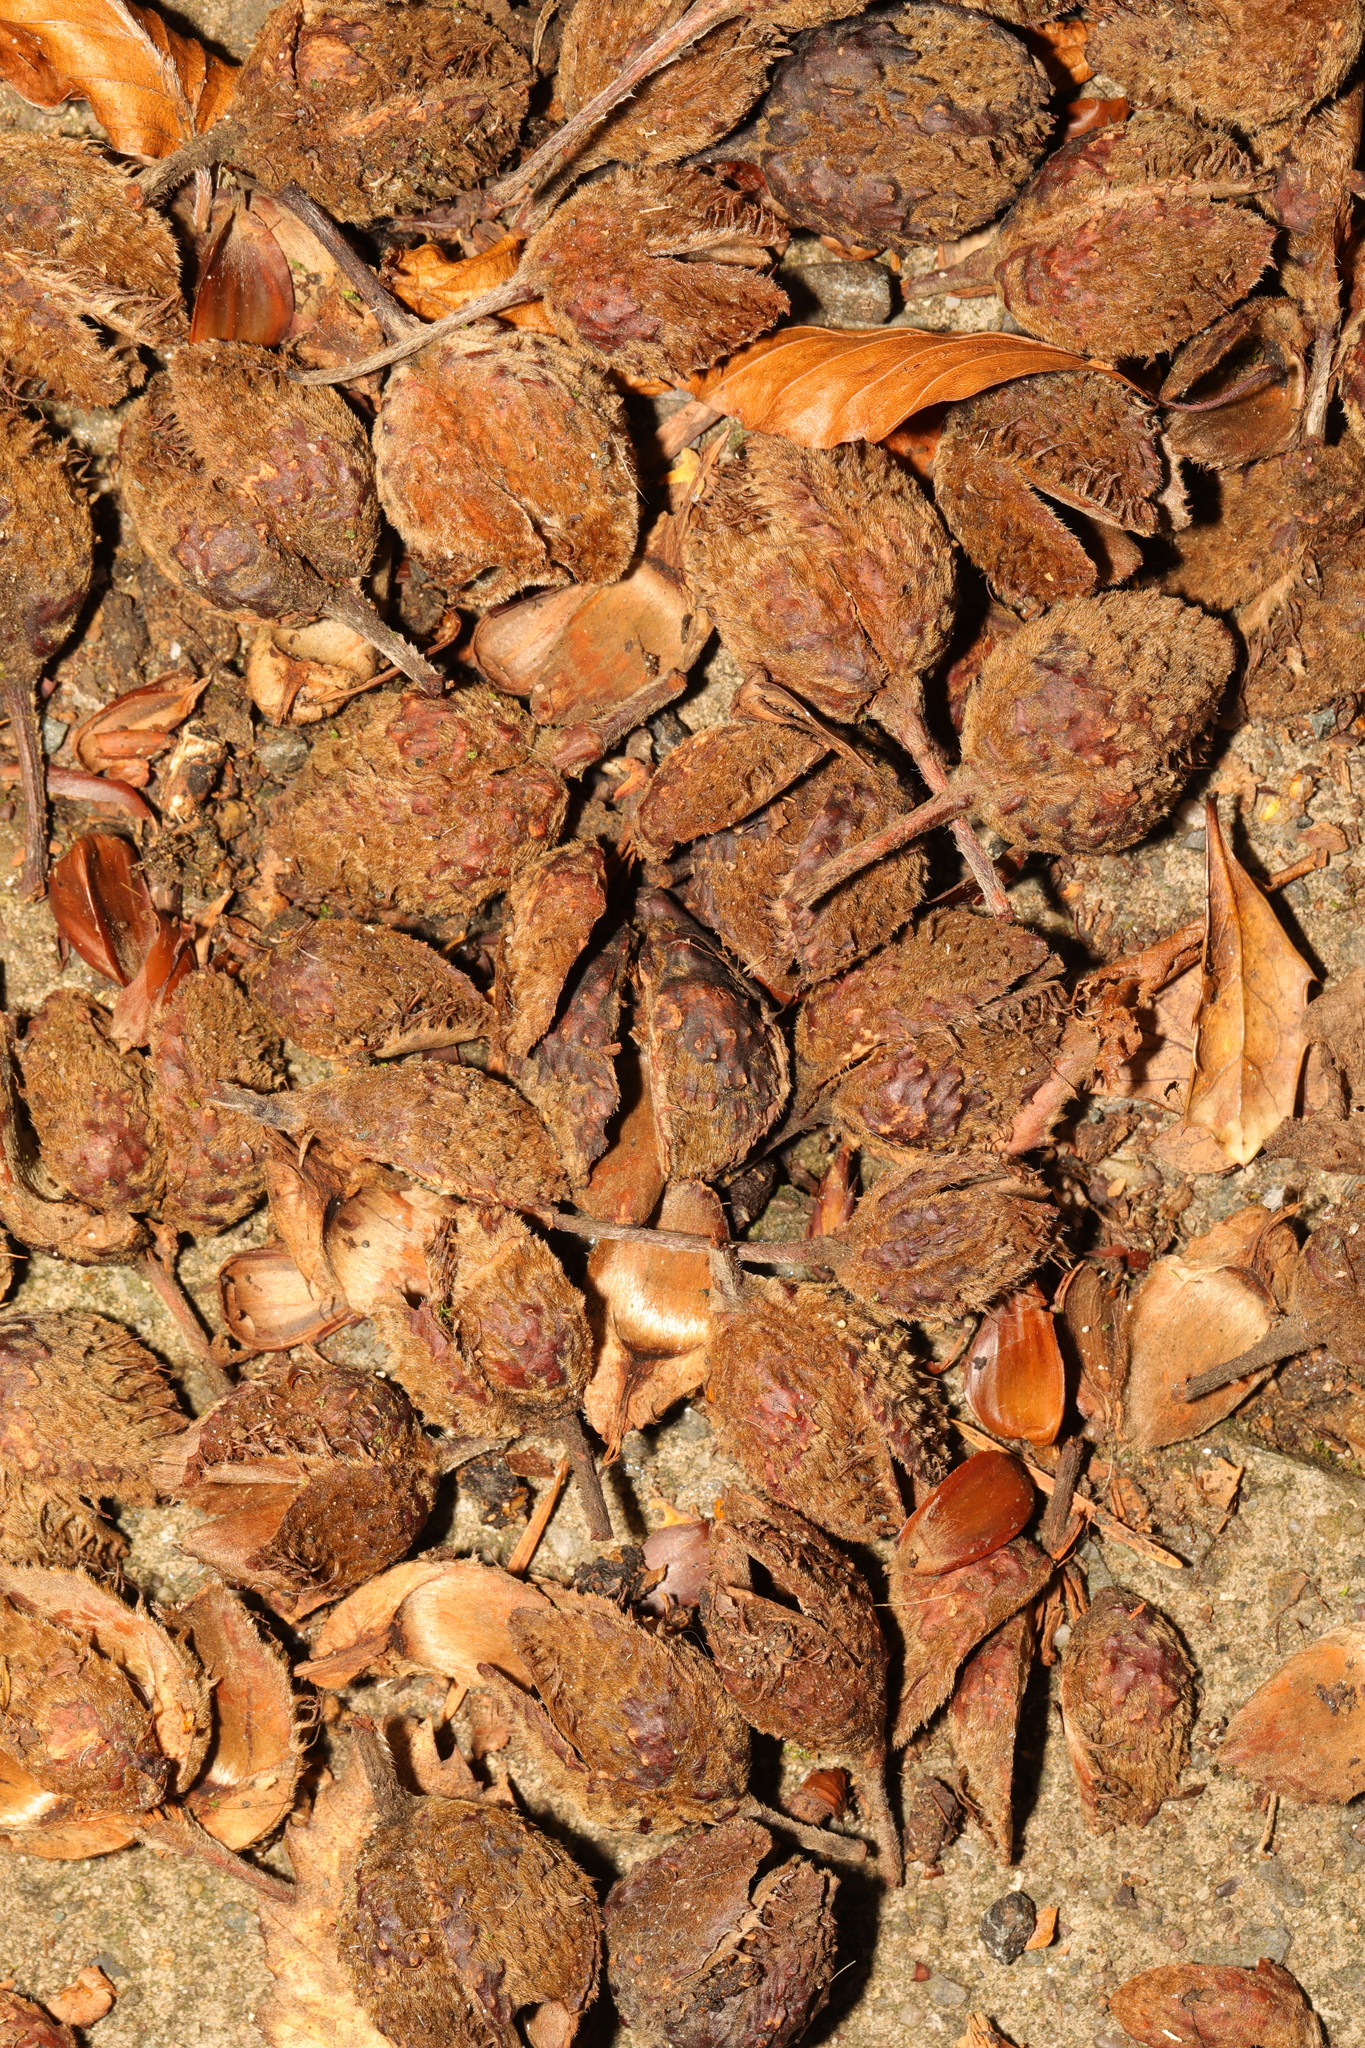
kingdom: Plantae
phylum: Tracheophyta
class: Magnoliopsida
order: Fagales
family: Fagaceae
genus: Fagus
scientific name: Fagus sylvatica
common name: Beech
